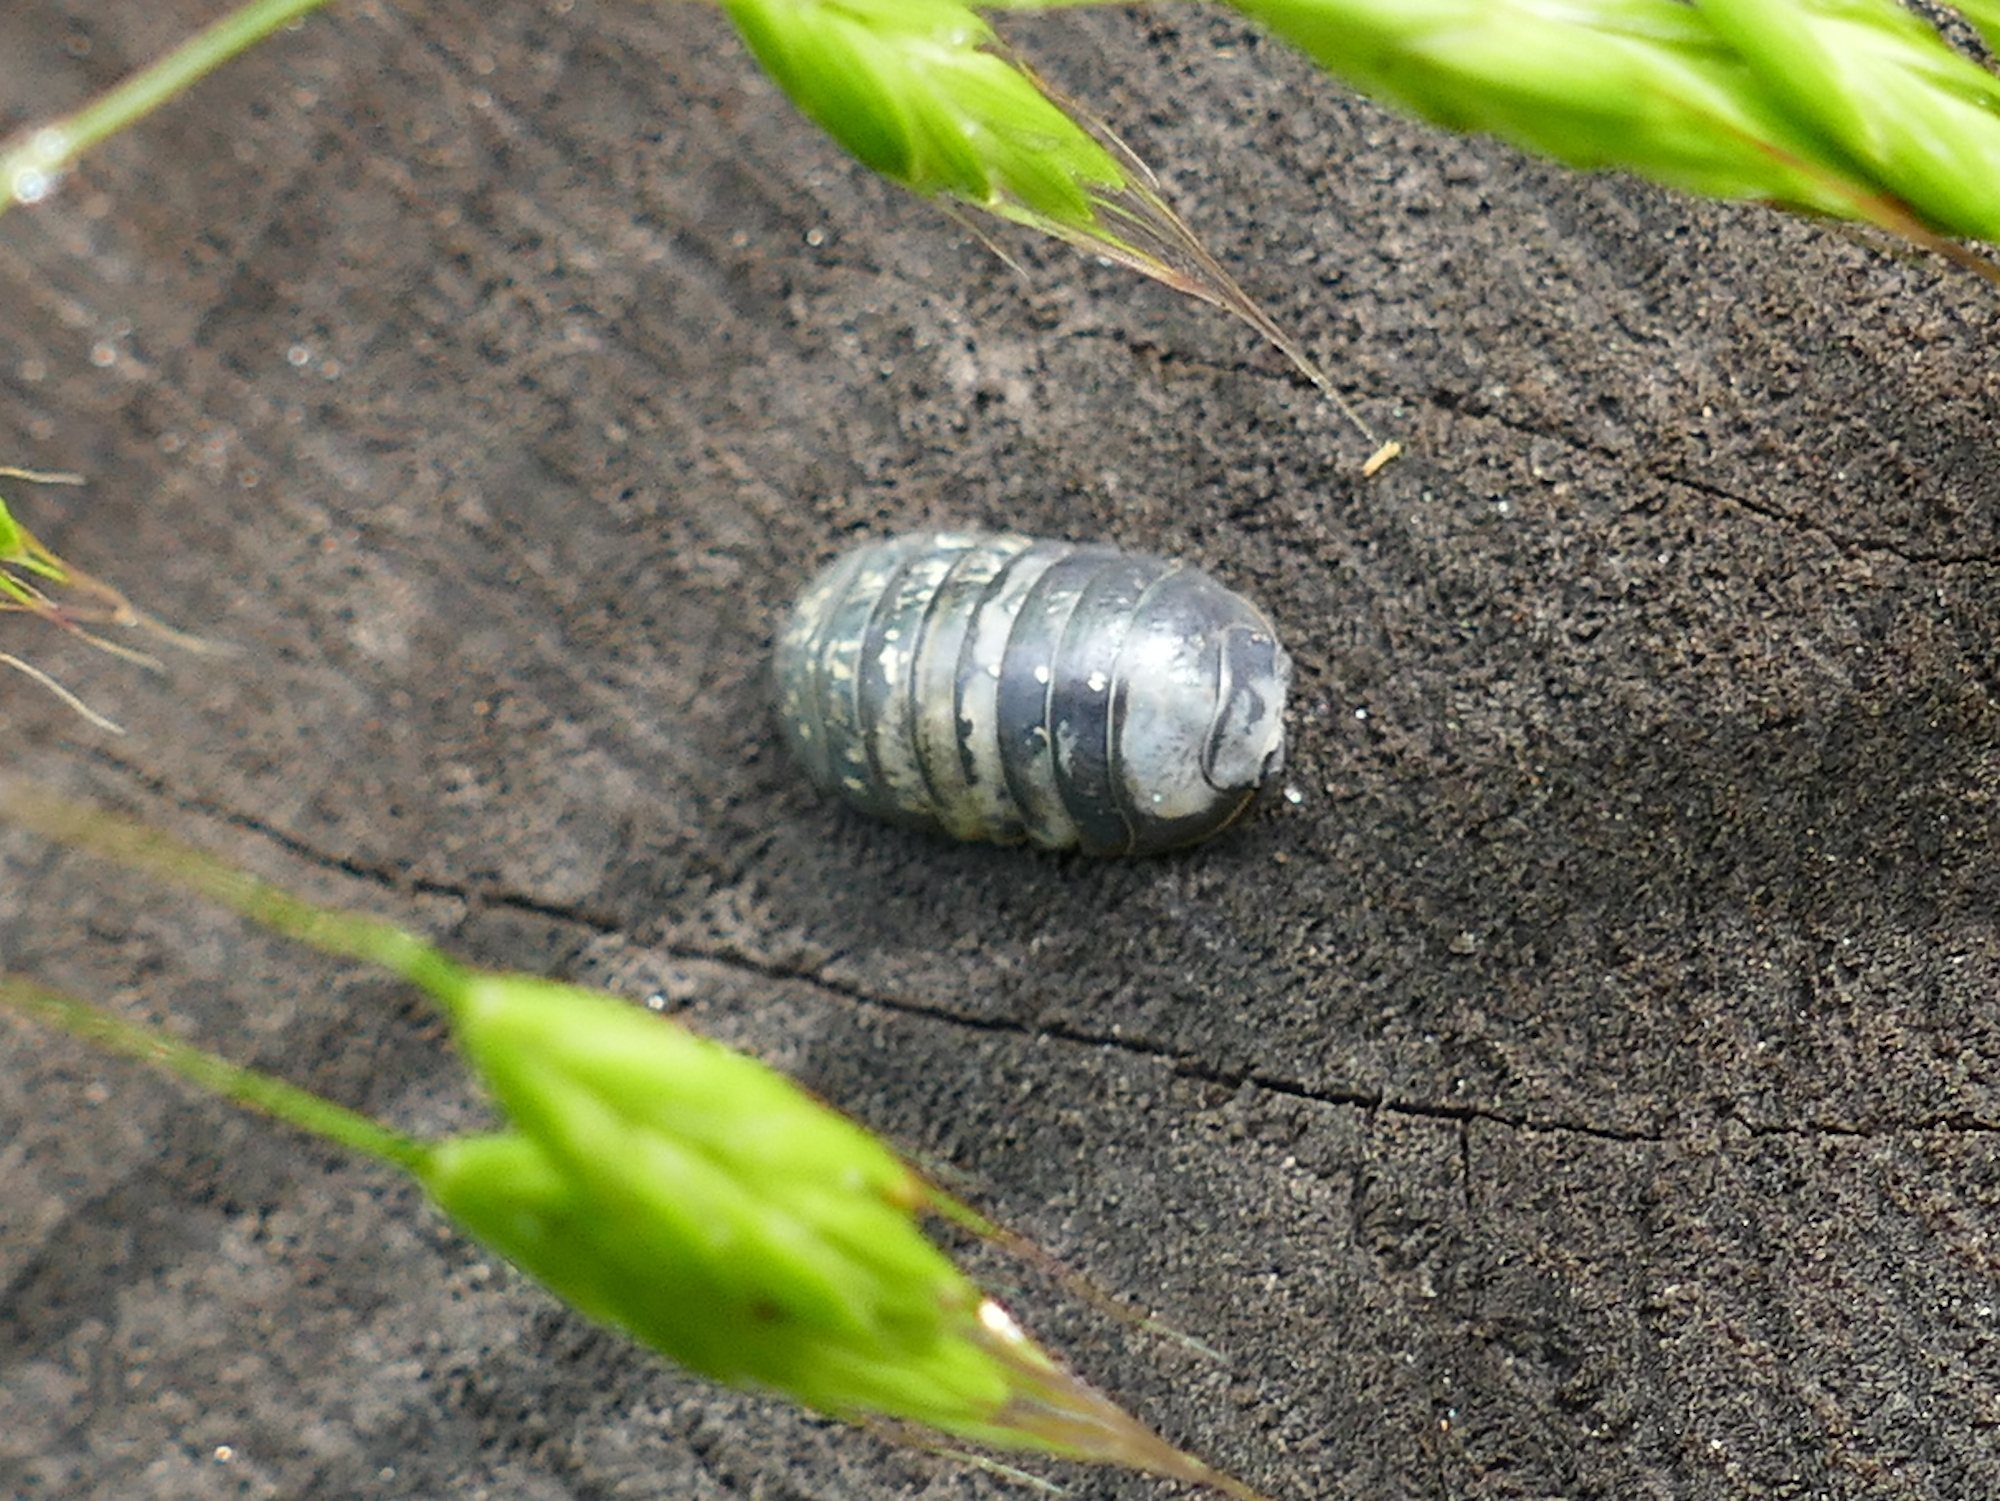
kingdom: Animalia
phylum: Arthropoda
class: Malacostraca
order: Isopoda
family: Armadillidiidae
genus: Armadillidium
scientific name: Armadillidium vulgare
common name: Common pill woodlouse
